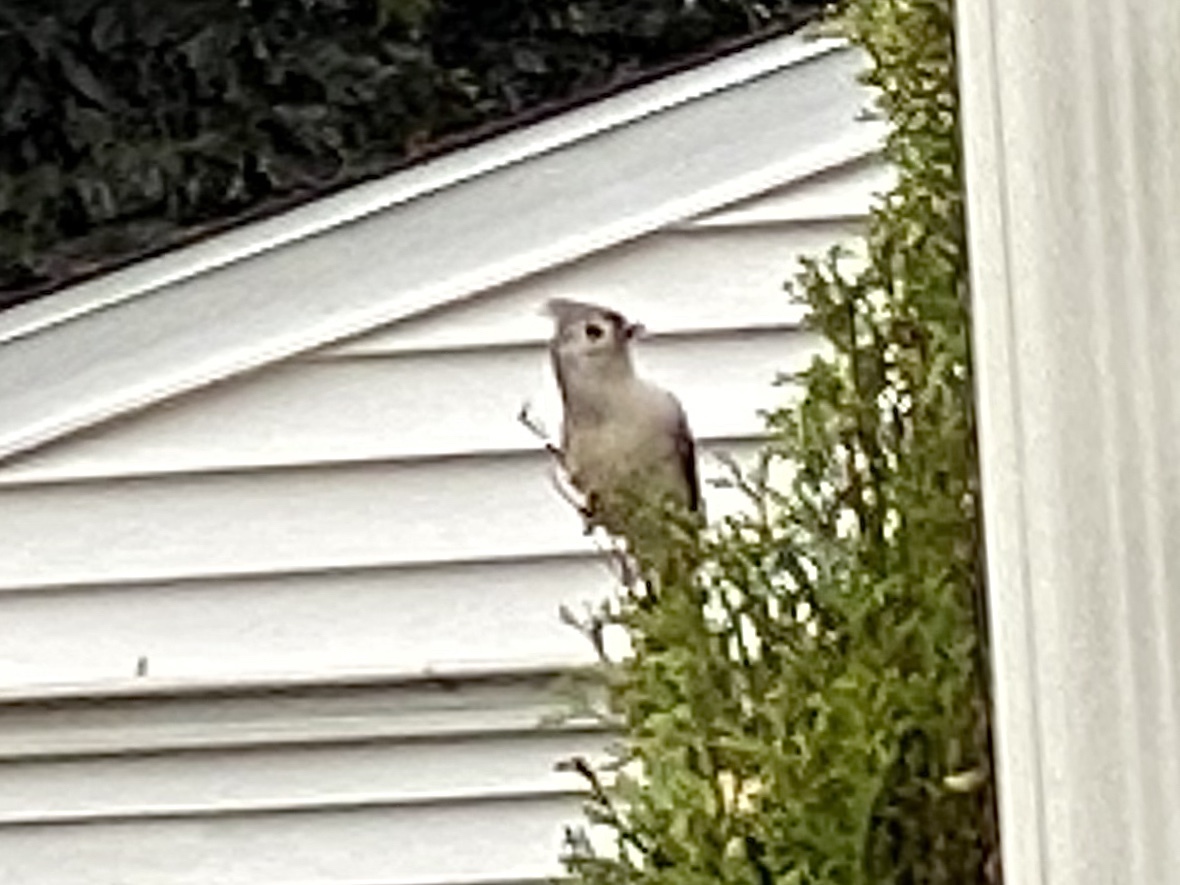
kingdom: Animalia
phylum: Chordata
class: Aves
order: Passeriformes
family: Paridae
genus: Baeolophus
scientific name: Baeolophus bicolor
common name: Tufted titmouse
